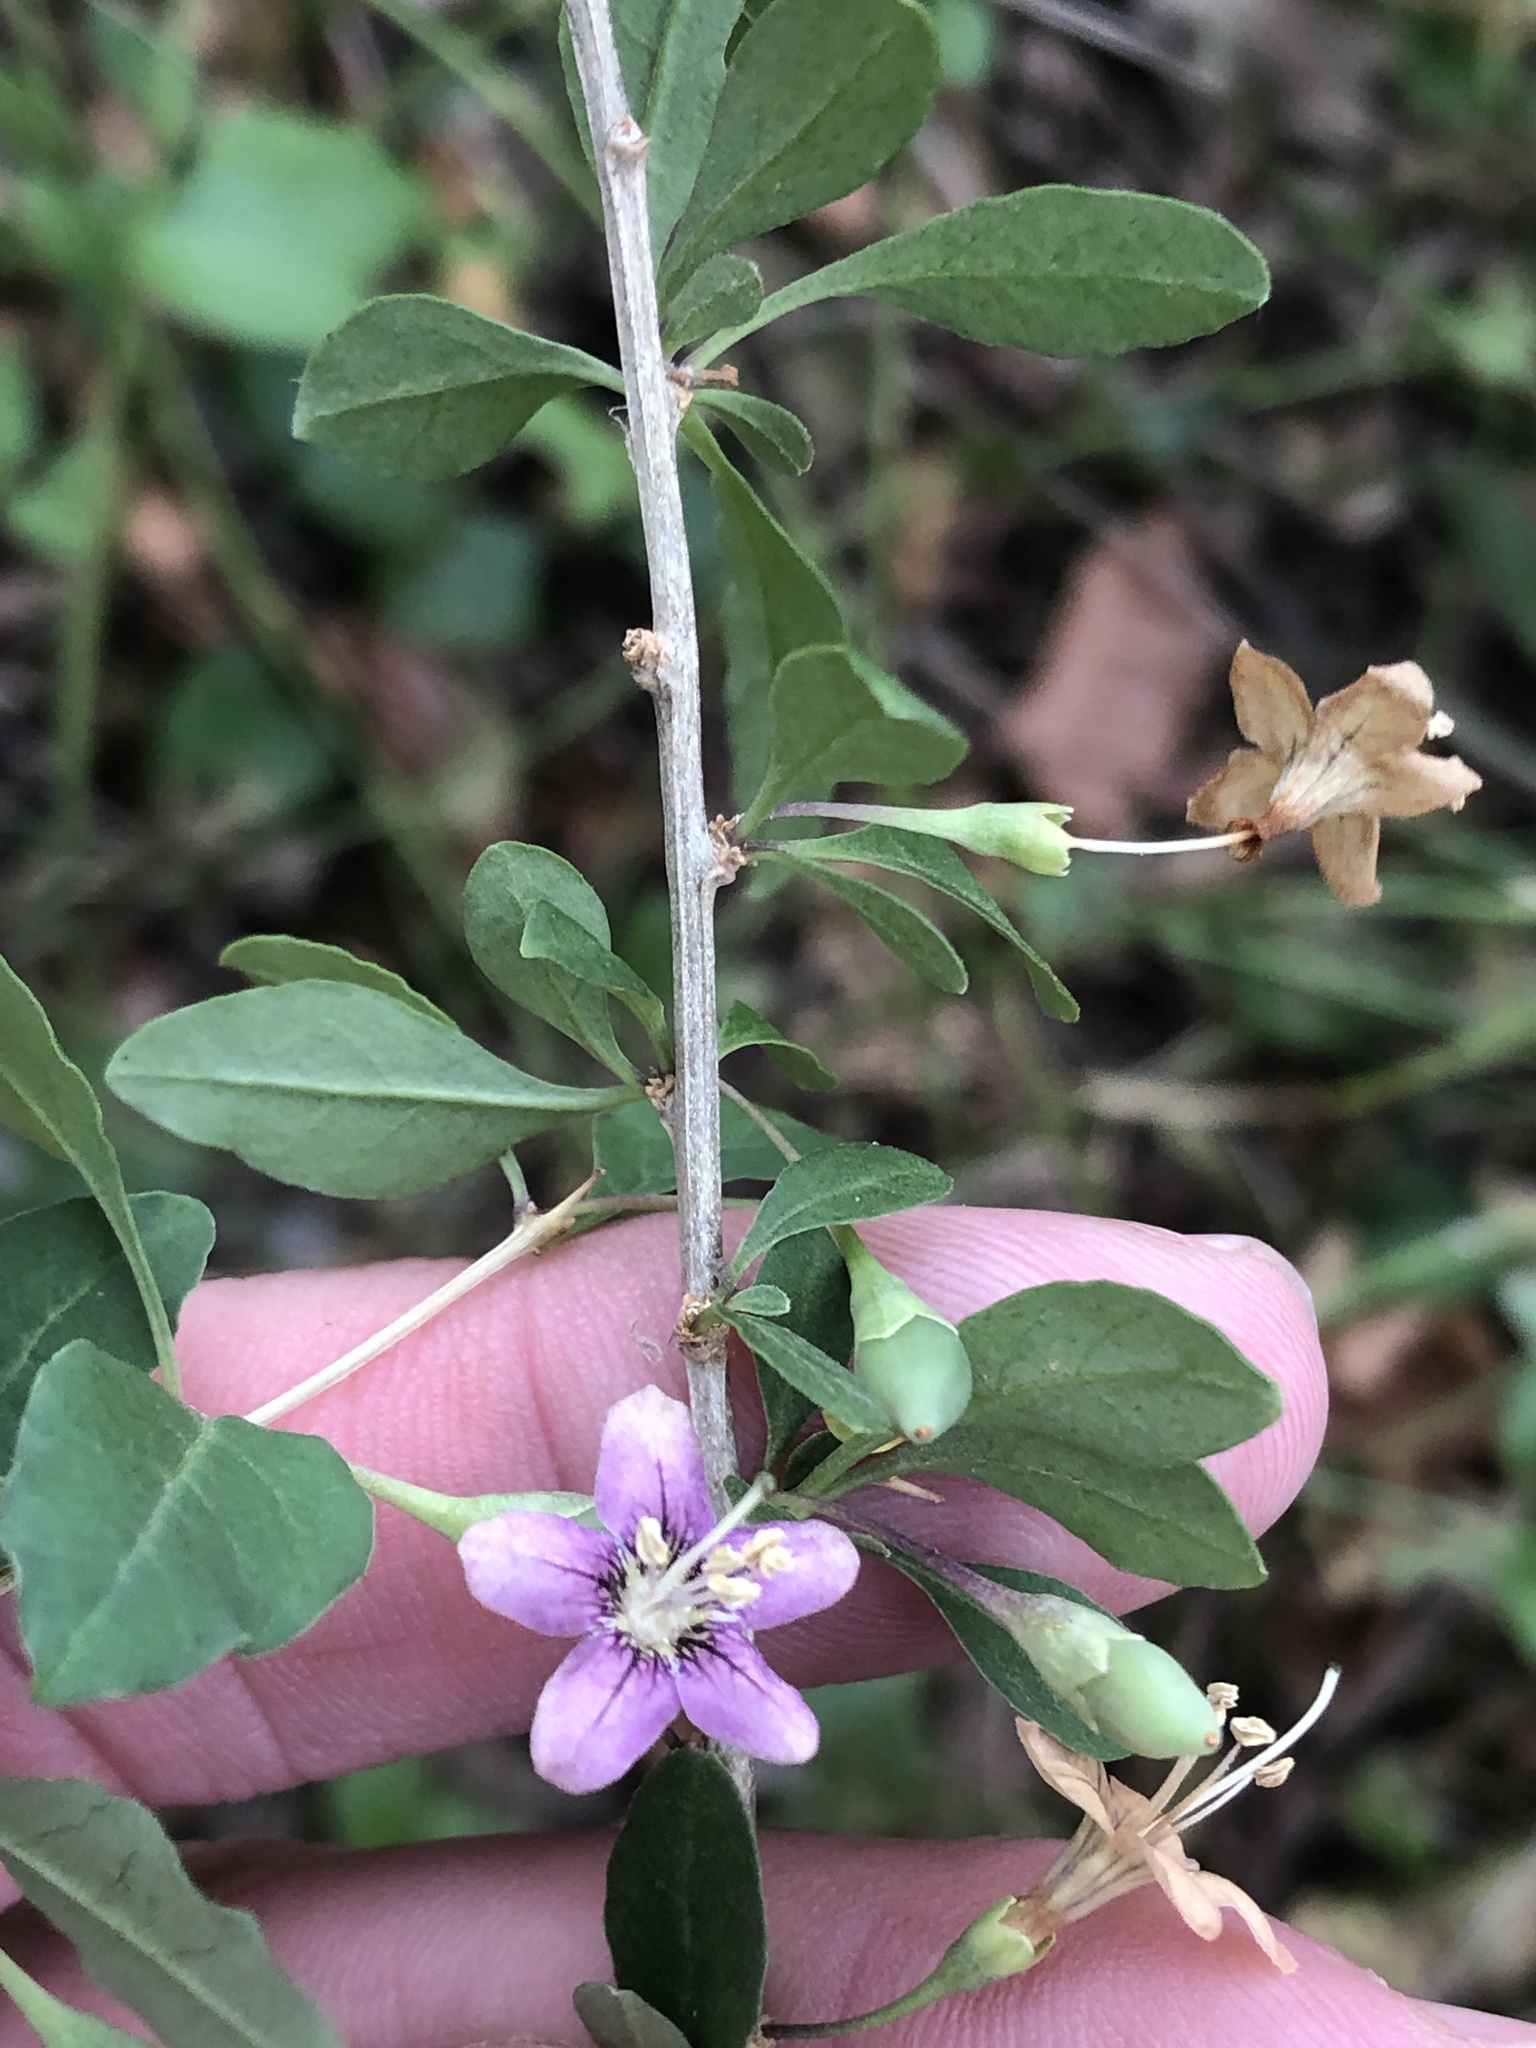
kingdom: Plantae
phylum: Tracheophyta
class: Magnoliopsida
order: Solanales
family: Solanaceae
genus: Lycium
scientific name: Lycium barbarum
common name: Duke of argyll's teaplant
